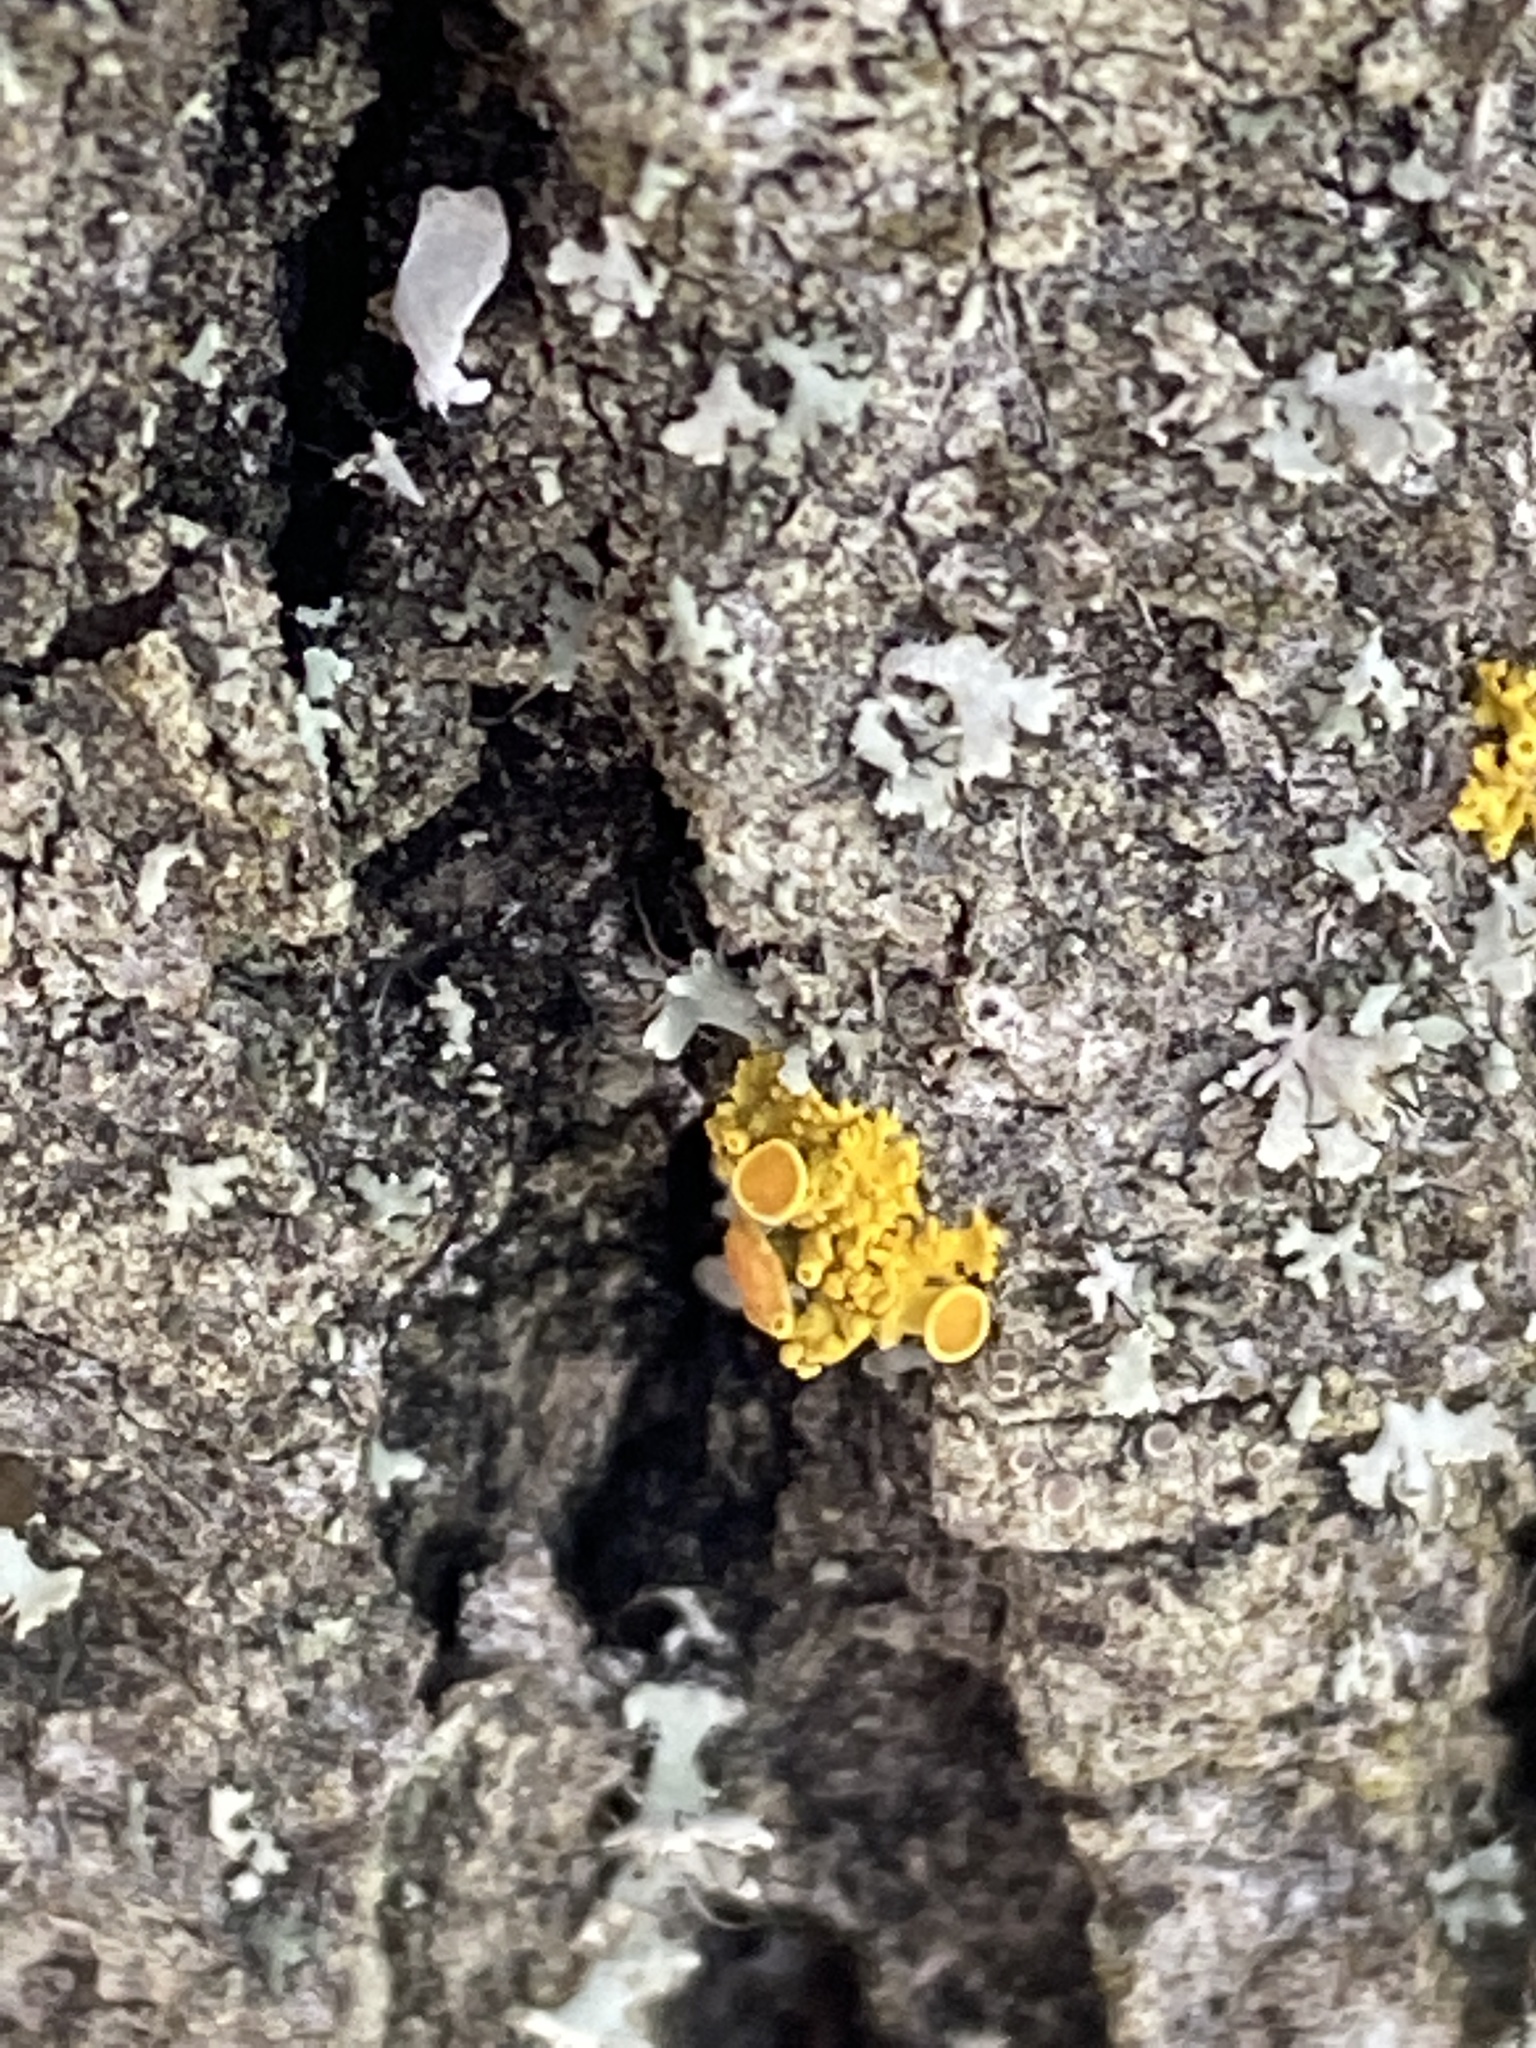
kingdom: Fungi
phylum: Ascomycota
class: Lecanoromycetes
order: Teloschistales
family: Teloschistaceae
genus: Polycauliona
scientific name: Polycauliona polycarpa
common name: Pin-cushion sunburst lichen
